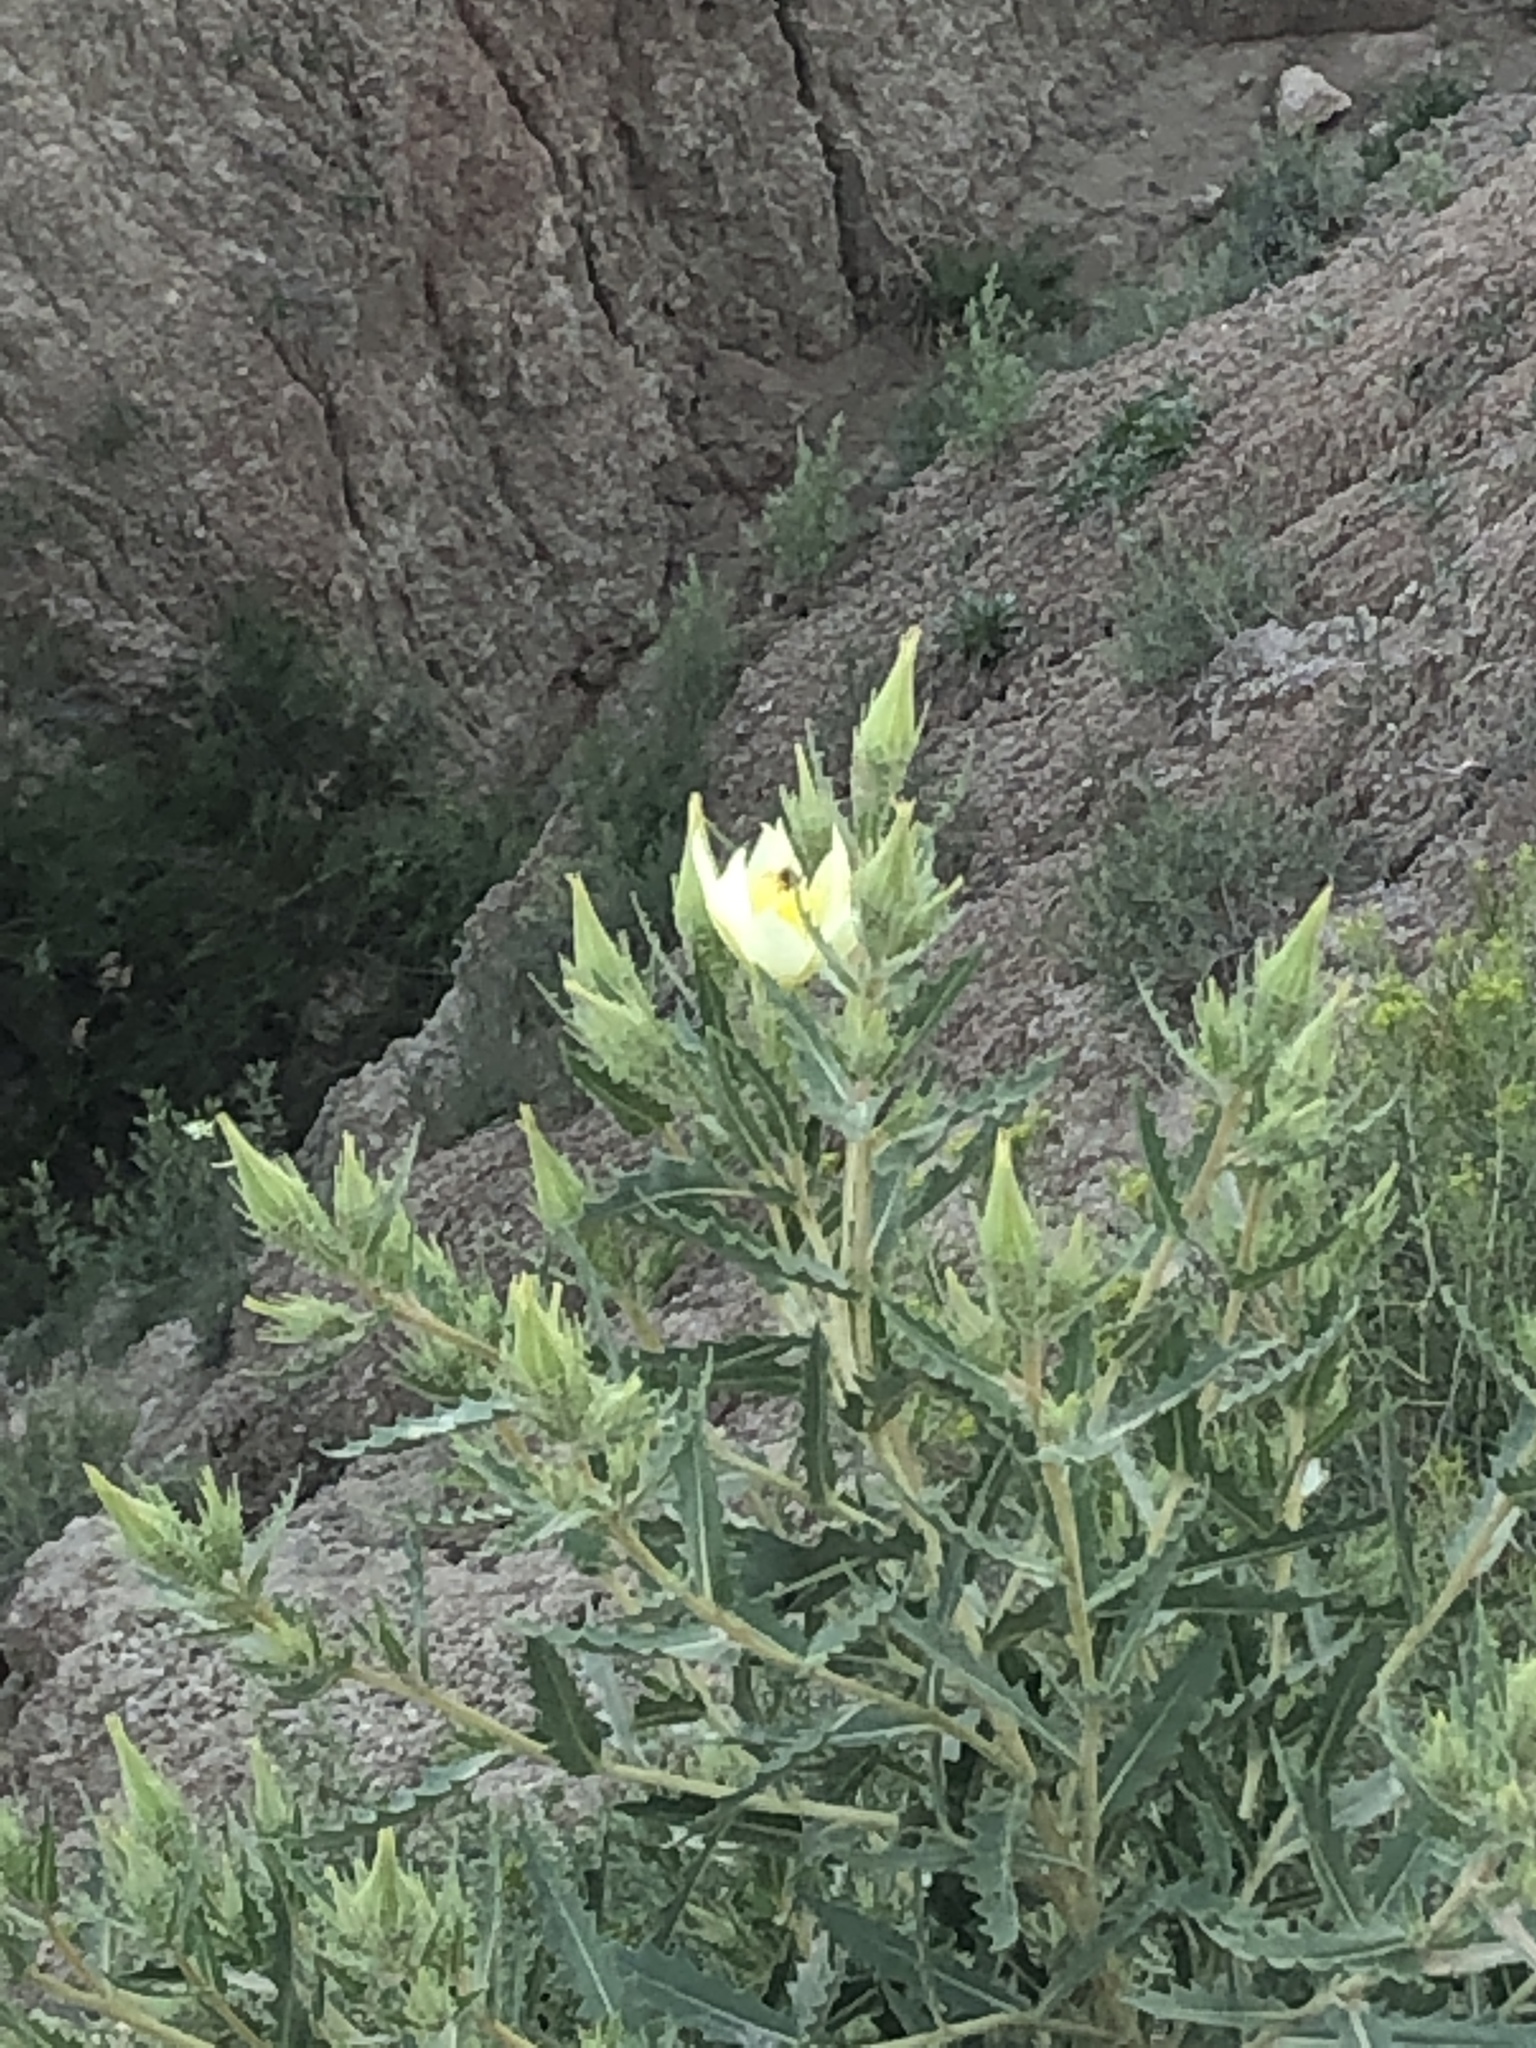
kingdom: Plantae
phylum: Tracheophyta
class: Magnoliopsida
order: Cornales
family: Loasaceae
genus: Mentzelia
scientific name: Mentzelia decapetala
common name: Gumbo-lily
